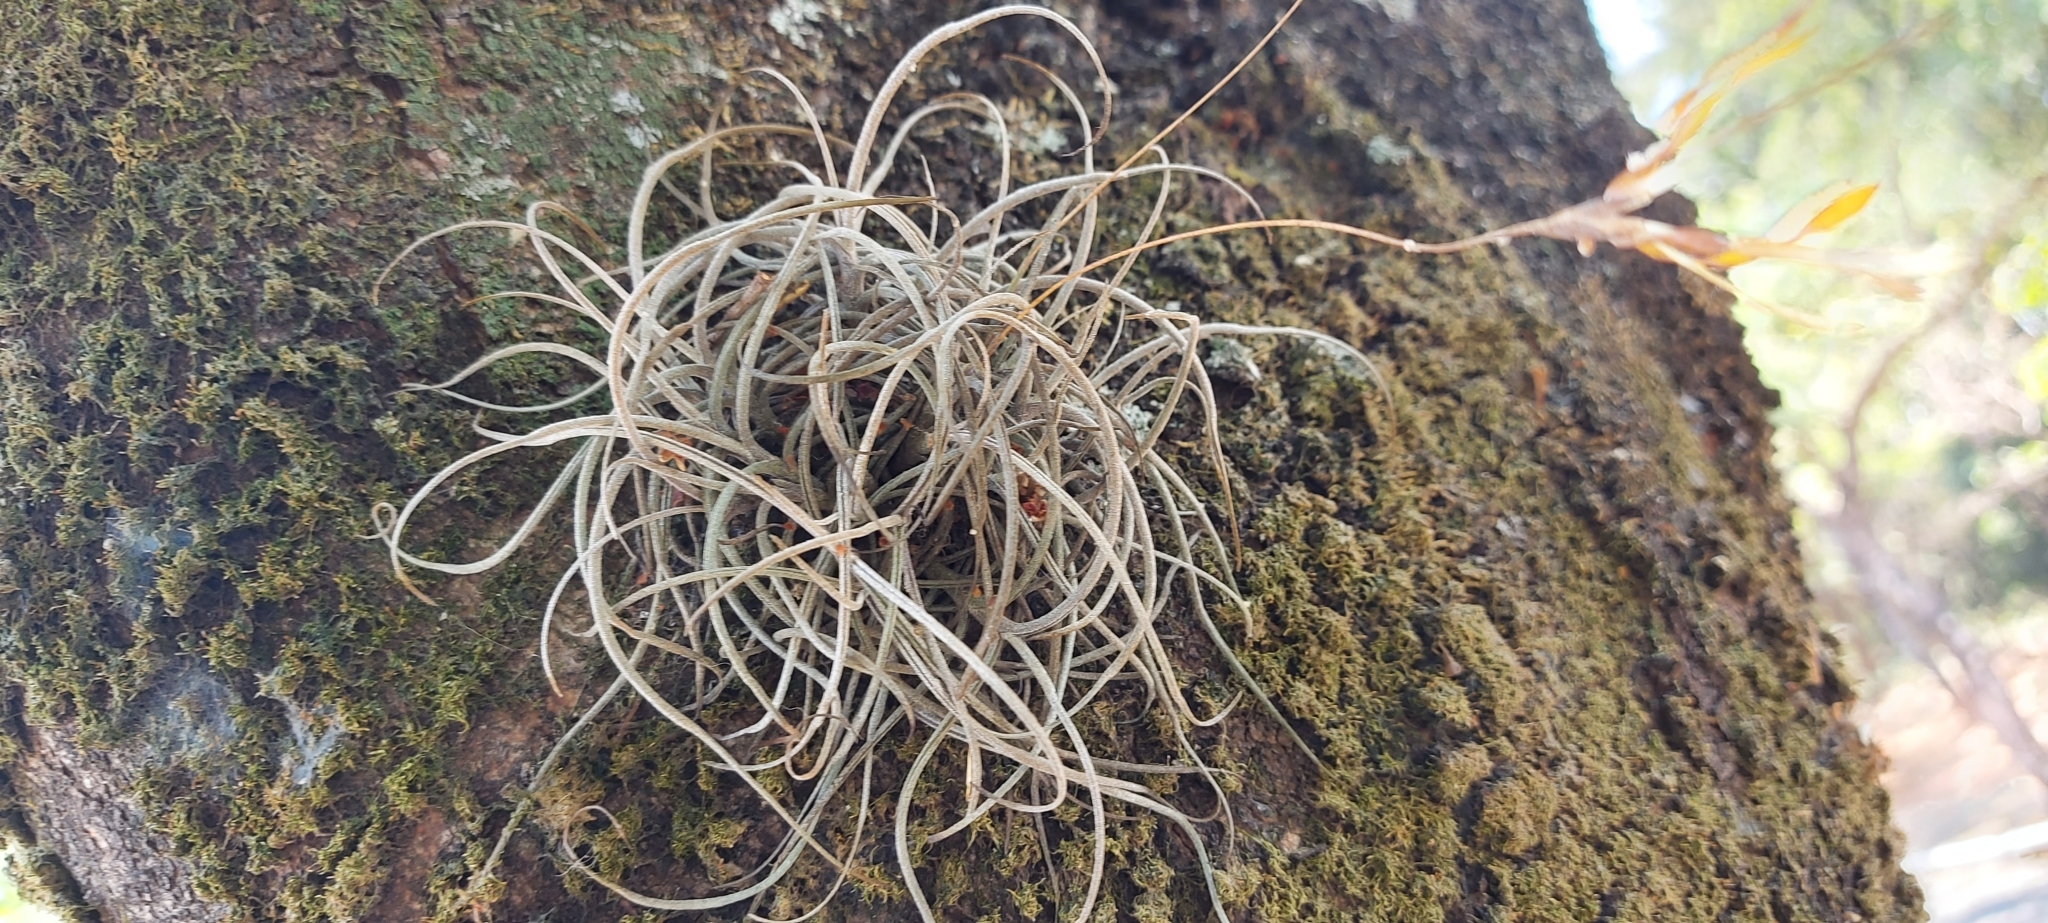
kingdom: Plantae
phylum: Tracheophyta
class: Liliopsida
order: Poales
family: Bromeliaceae
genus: Tillandsia
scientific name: Tillandsia recurvata
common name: Small ballmoss
